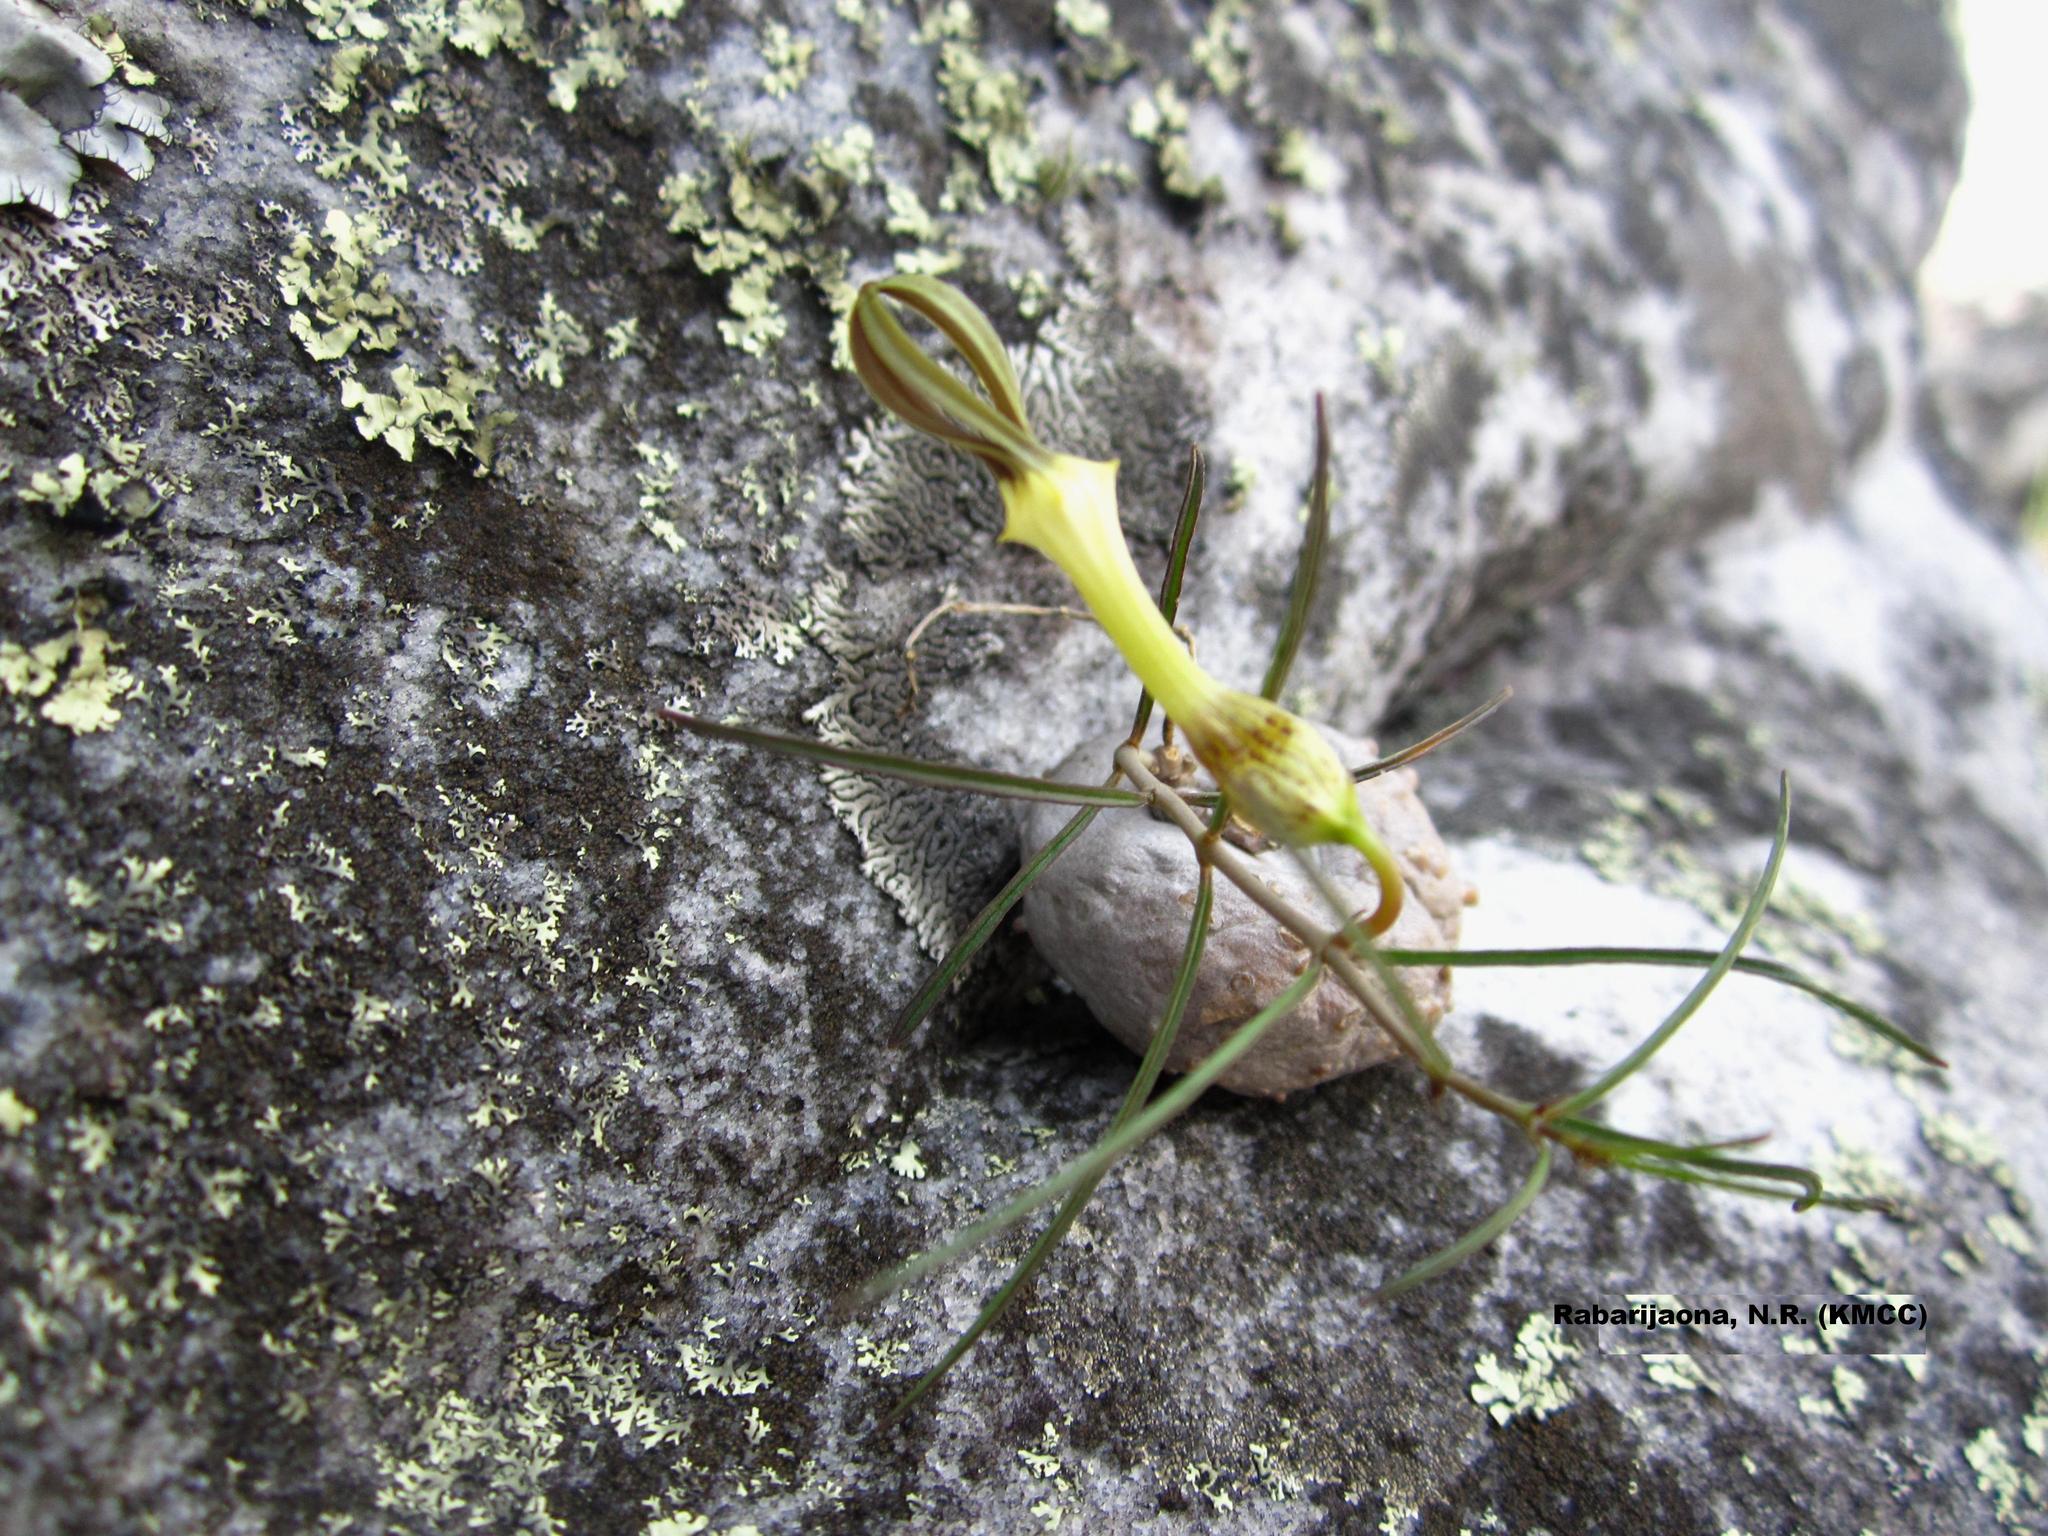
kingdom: Plantae
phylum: Tracheophyta
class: Magnoliopsida
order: Gentianales
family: Apocynaceae
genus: Ceropegia
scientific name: Ceropegia striata
